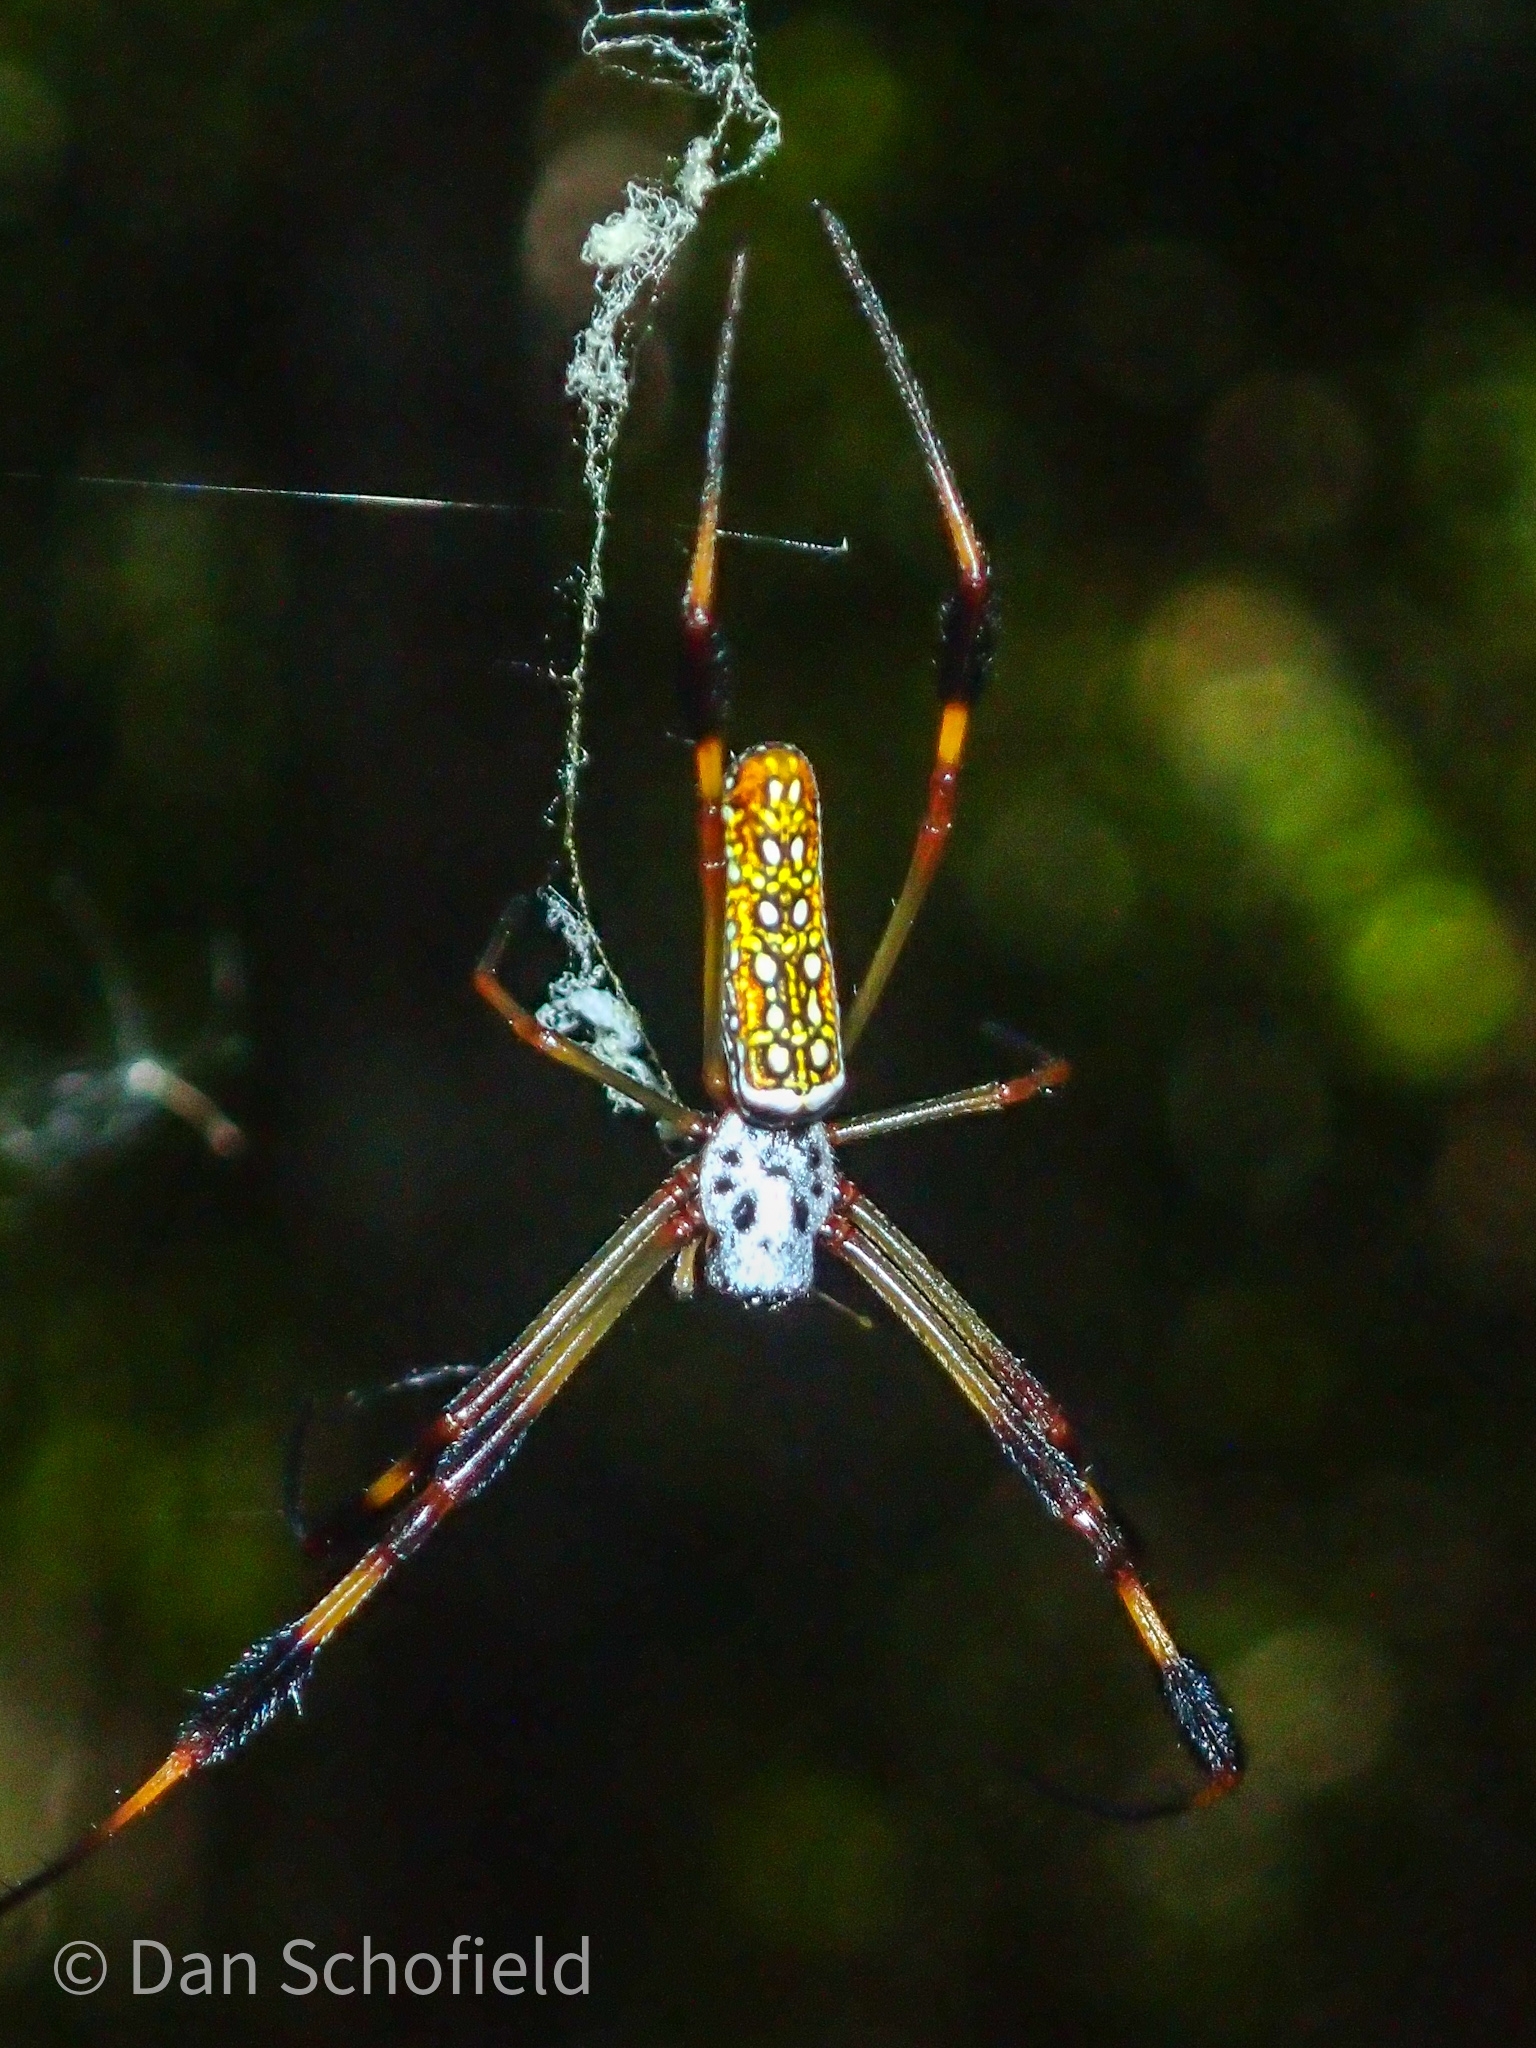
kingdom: Animalia
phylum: Arthropoda
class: Arachnida
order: Araneae
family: Araneidae
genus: Trichonephila
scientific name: Trichonephila clavipes
